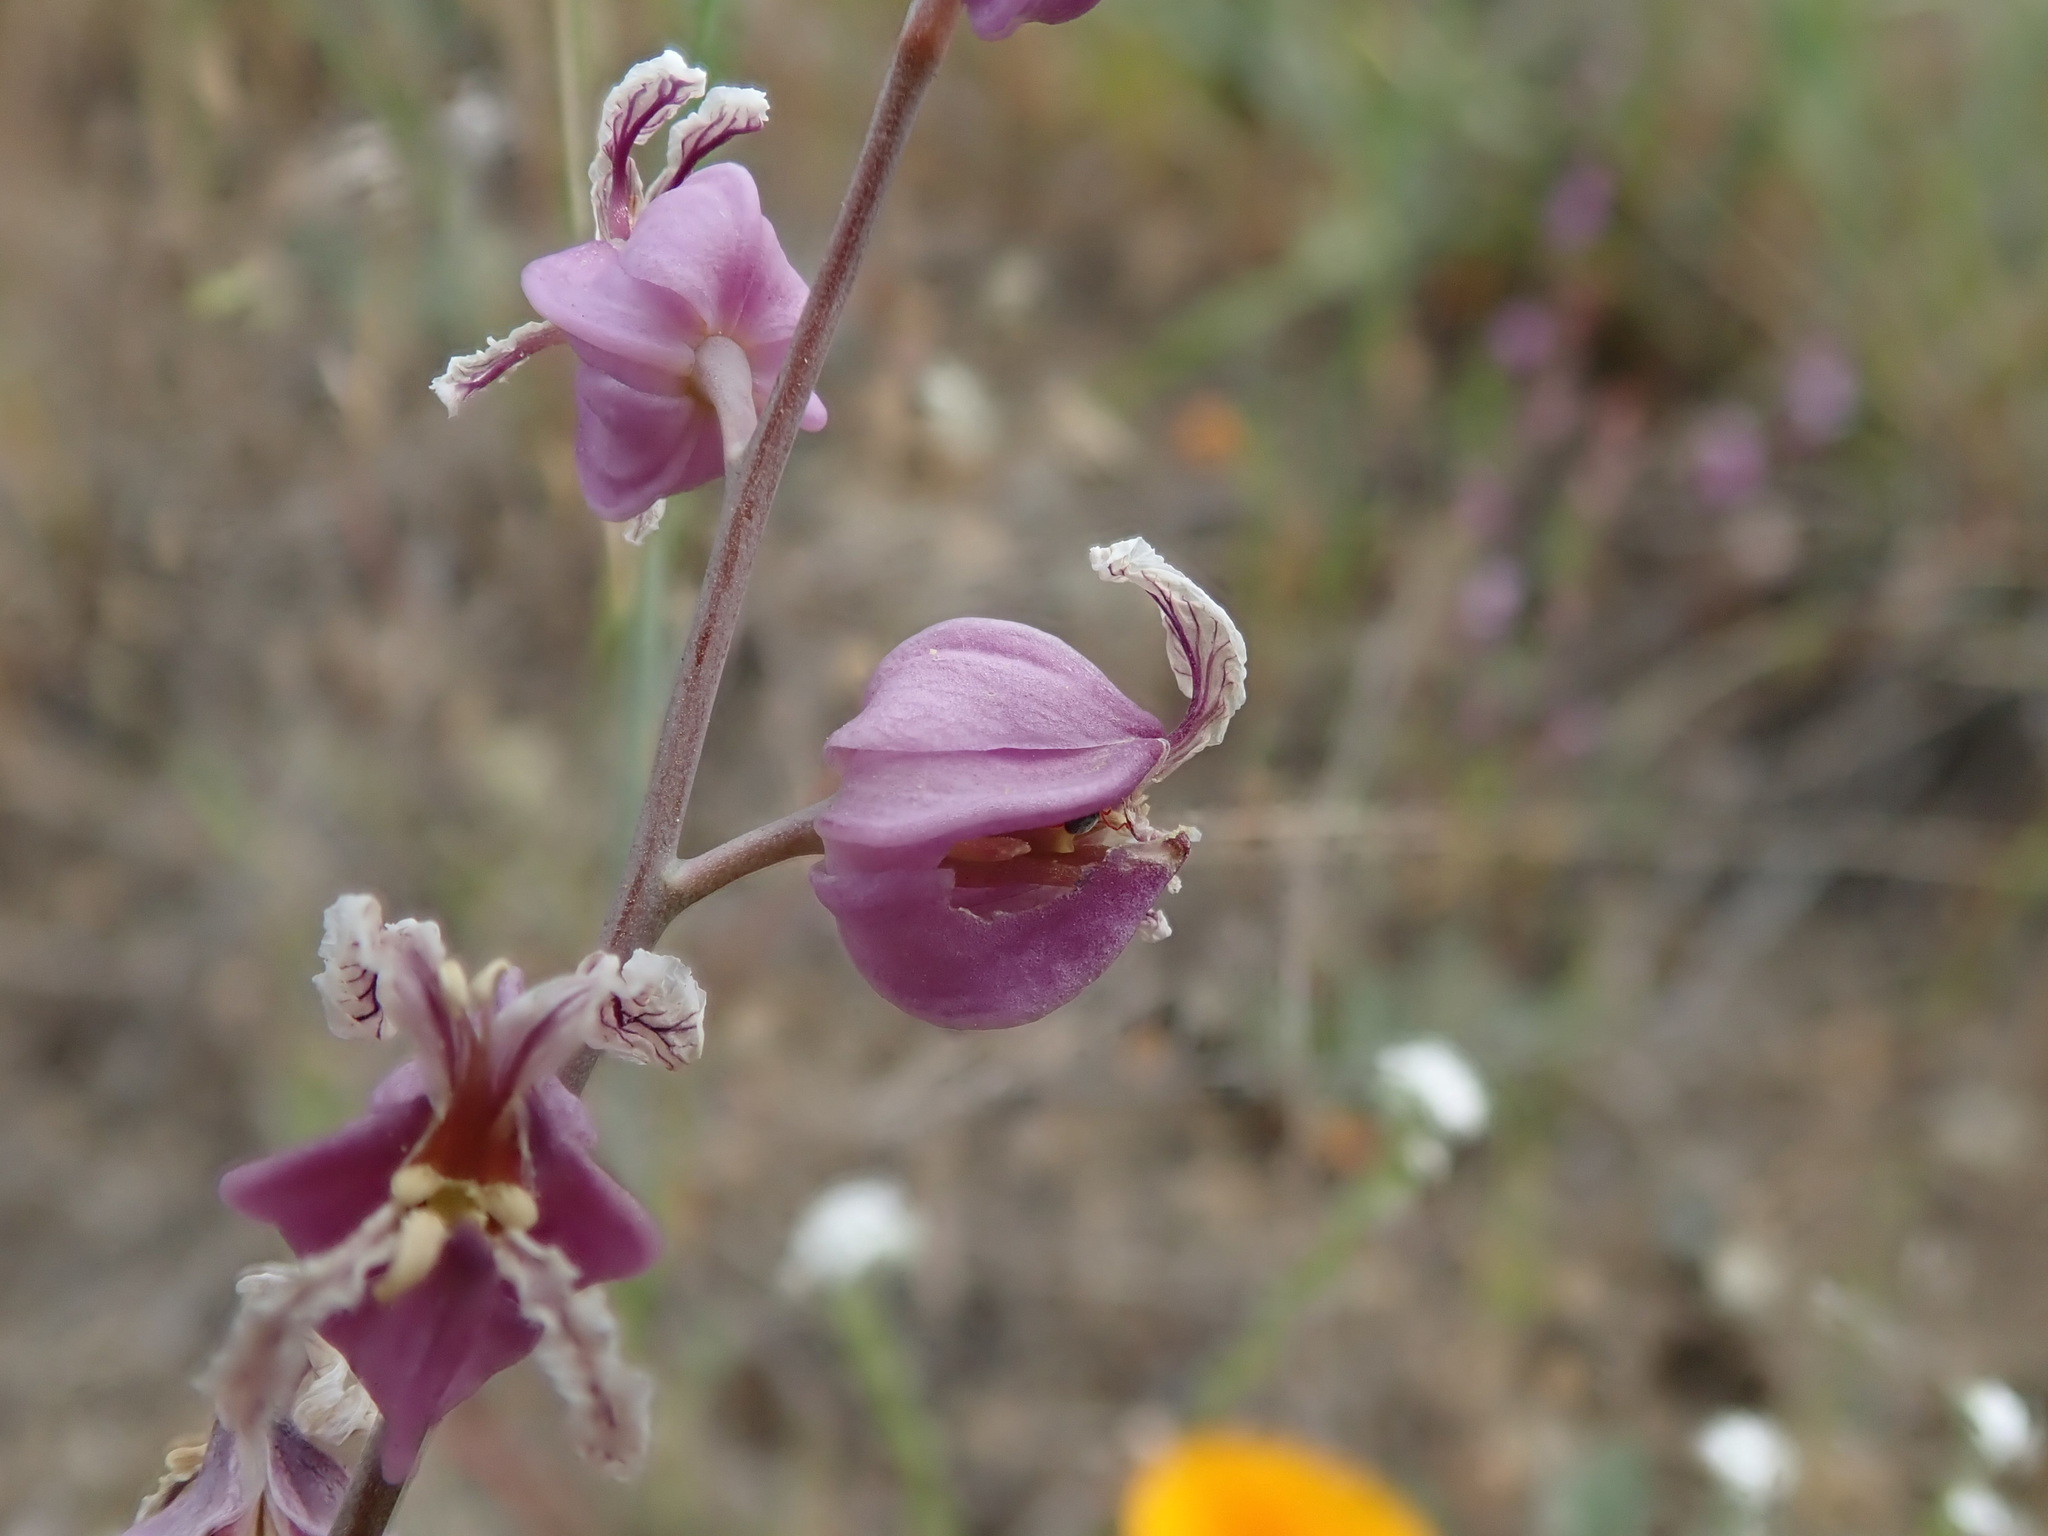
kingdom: Plantae
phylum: Tracheophyta
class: Magnoliopsida
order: Brassicales
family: Brassicaceae
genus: Streptanthus
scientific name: Streptanthus glandulosus
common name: Jewel-flower
